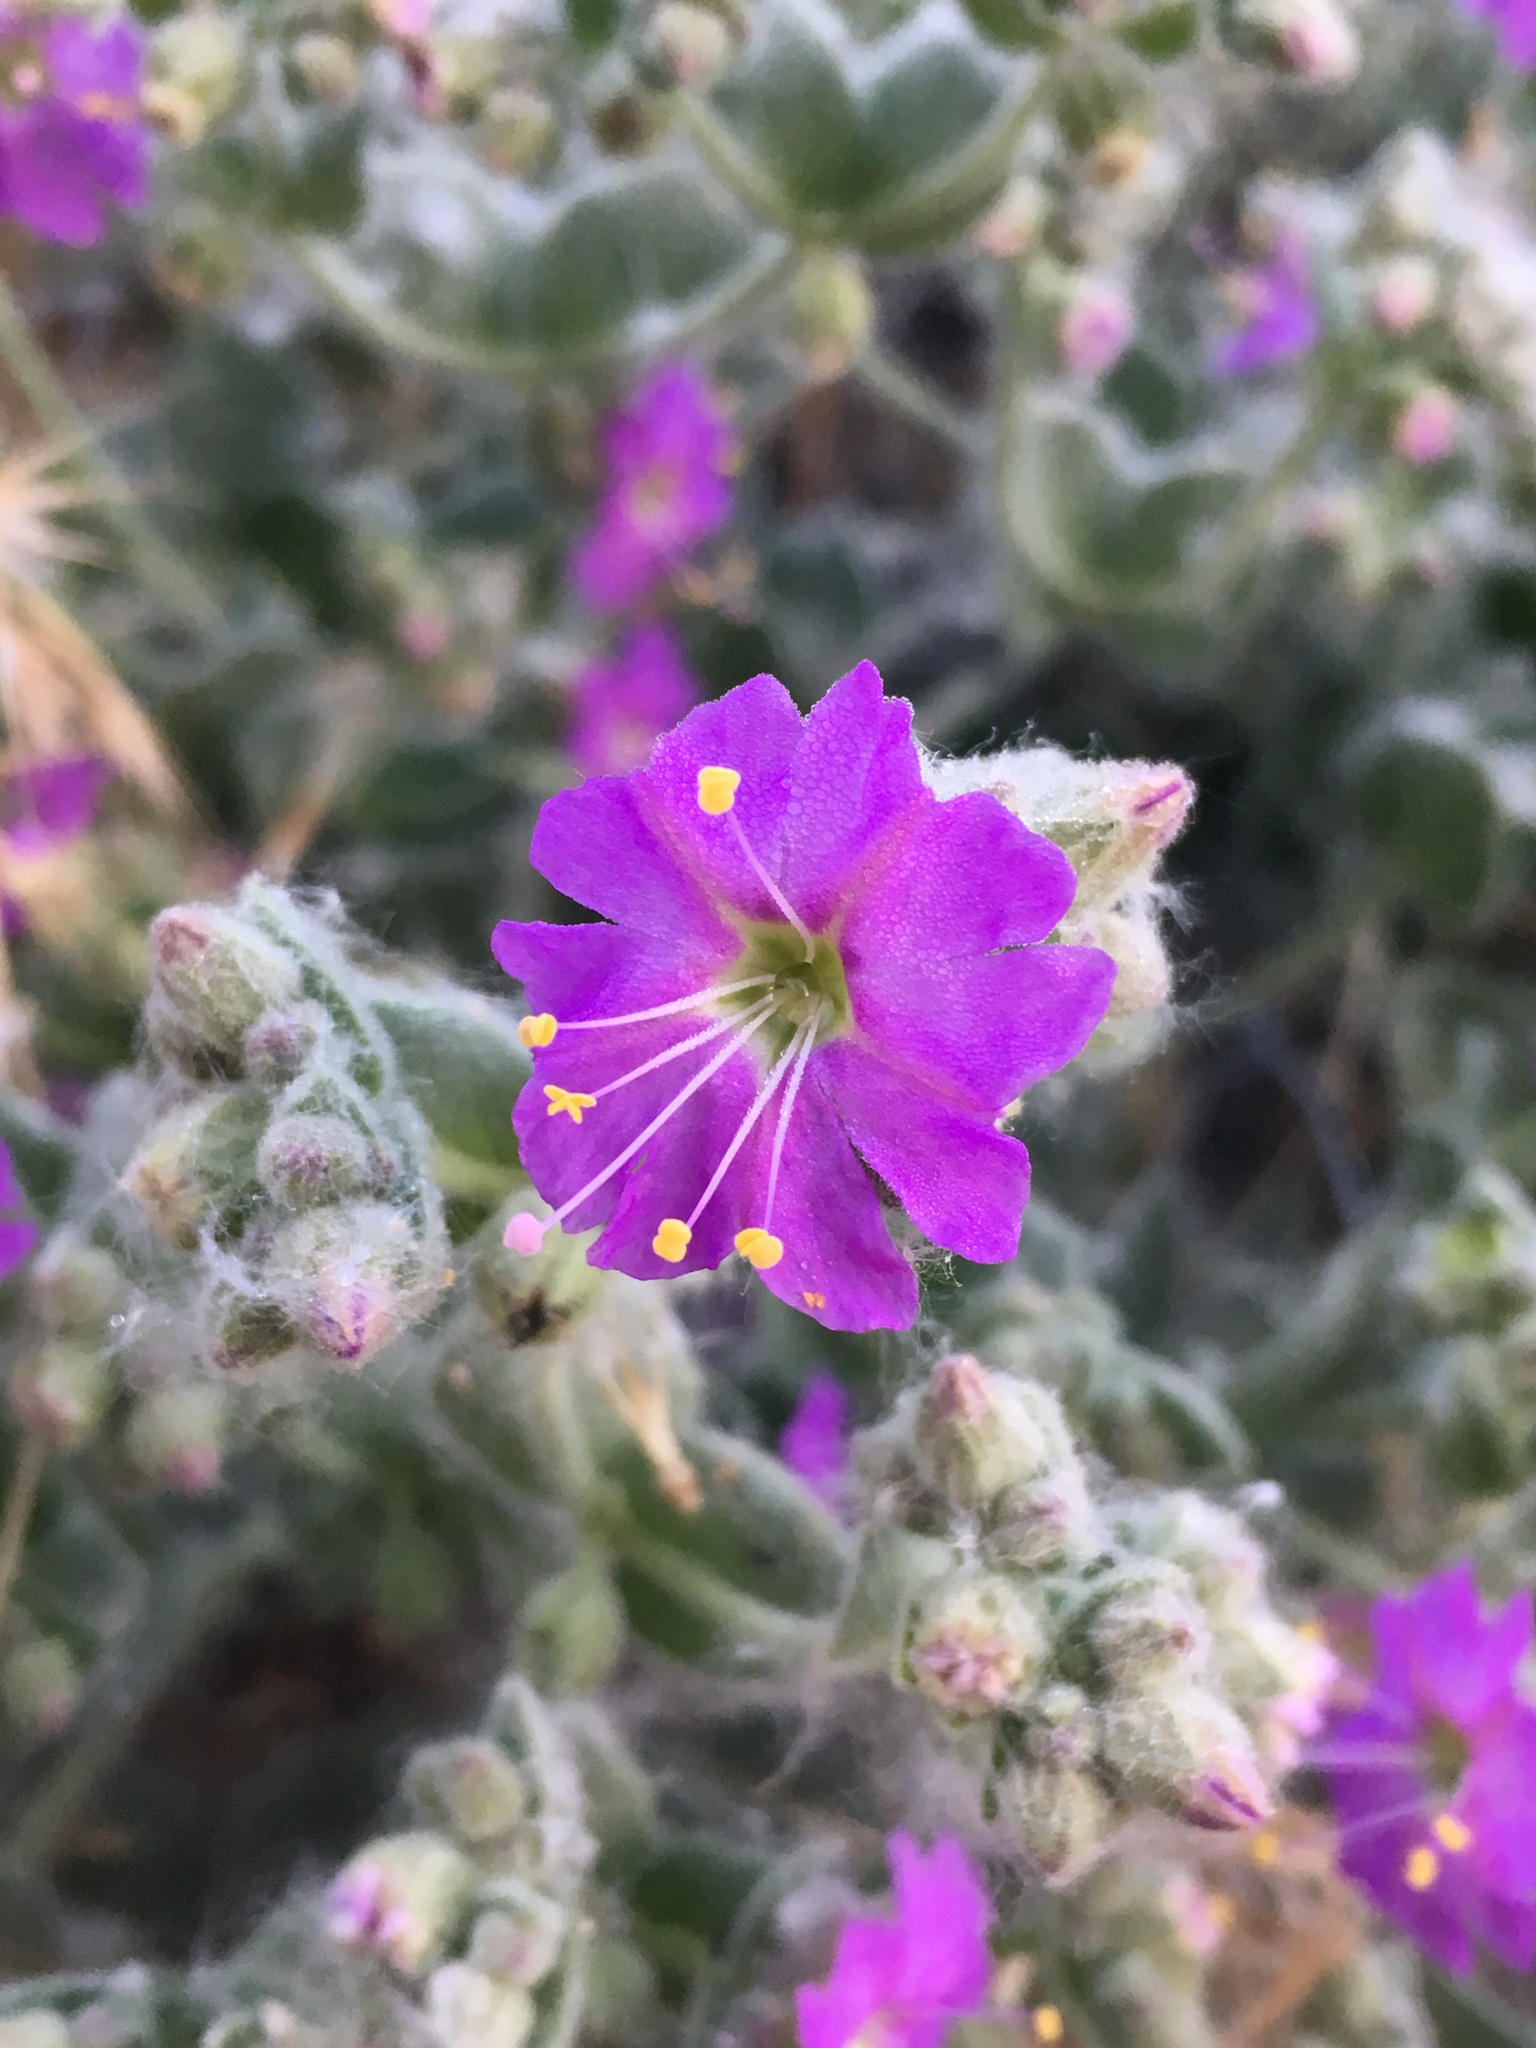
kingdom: Plantae
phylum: Tracheophyta
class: Magnoliopsida
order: Caryophyllales
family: Nyctaginaceae
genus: Mirabilis
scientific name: Mirabilis laevis
